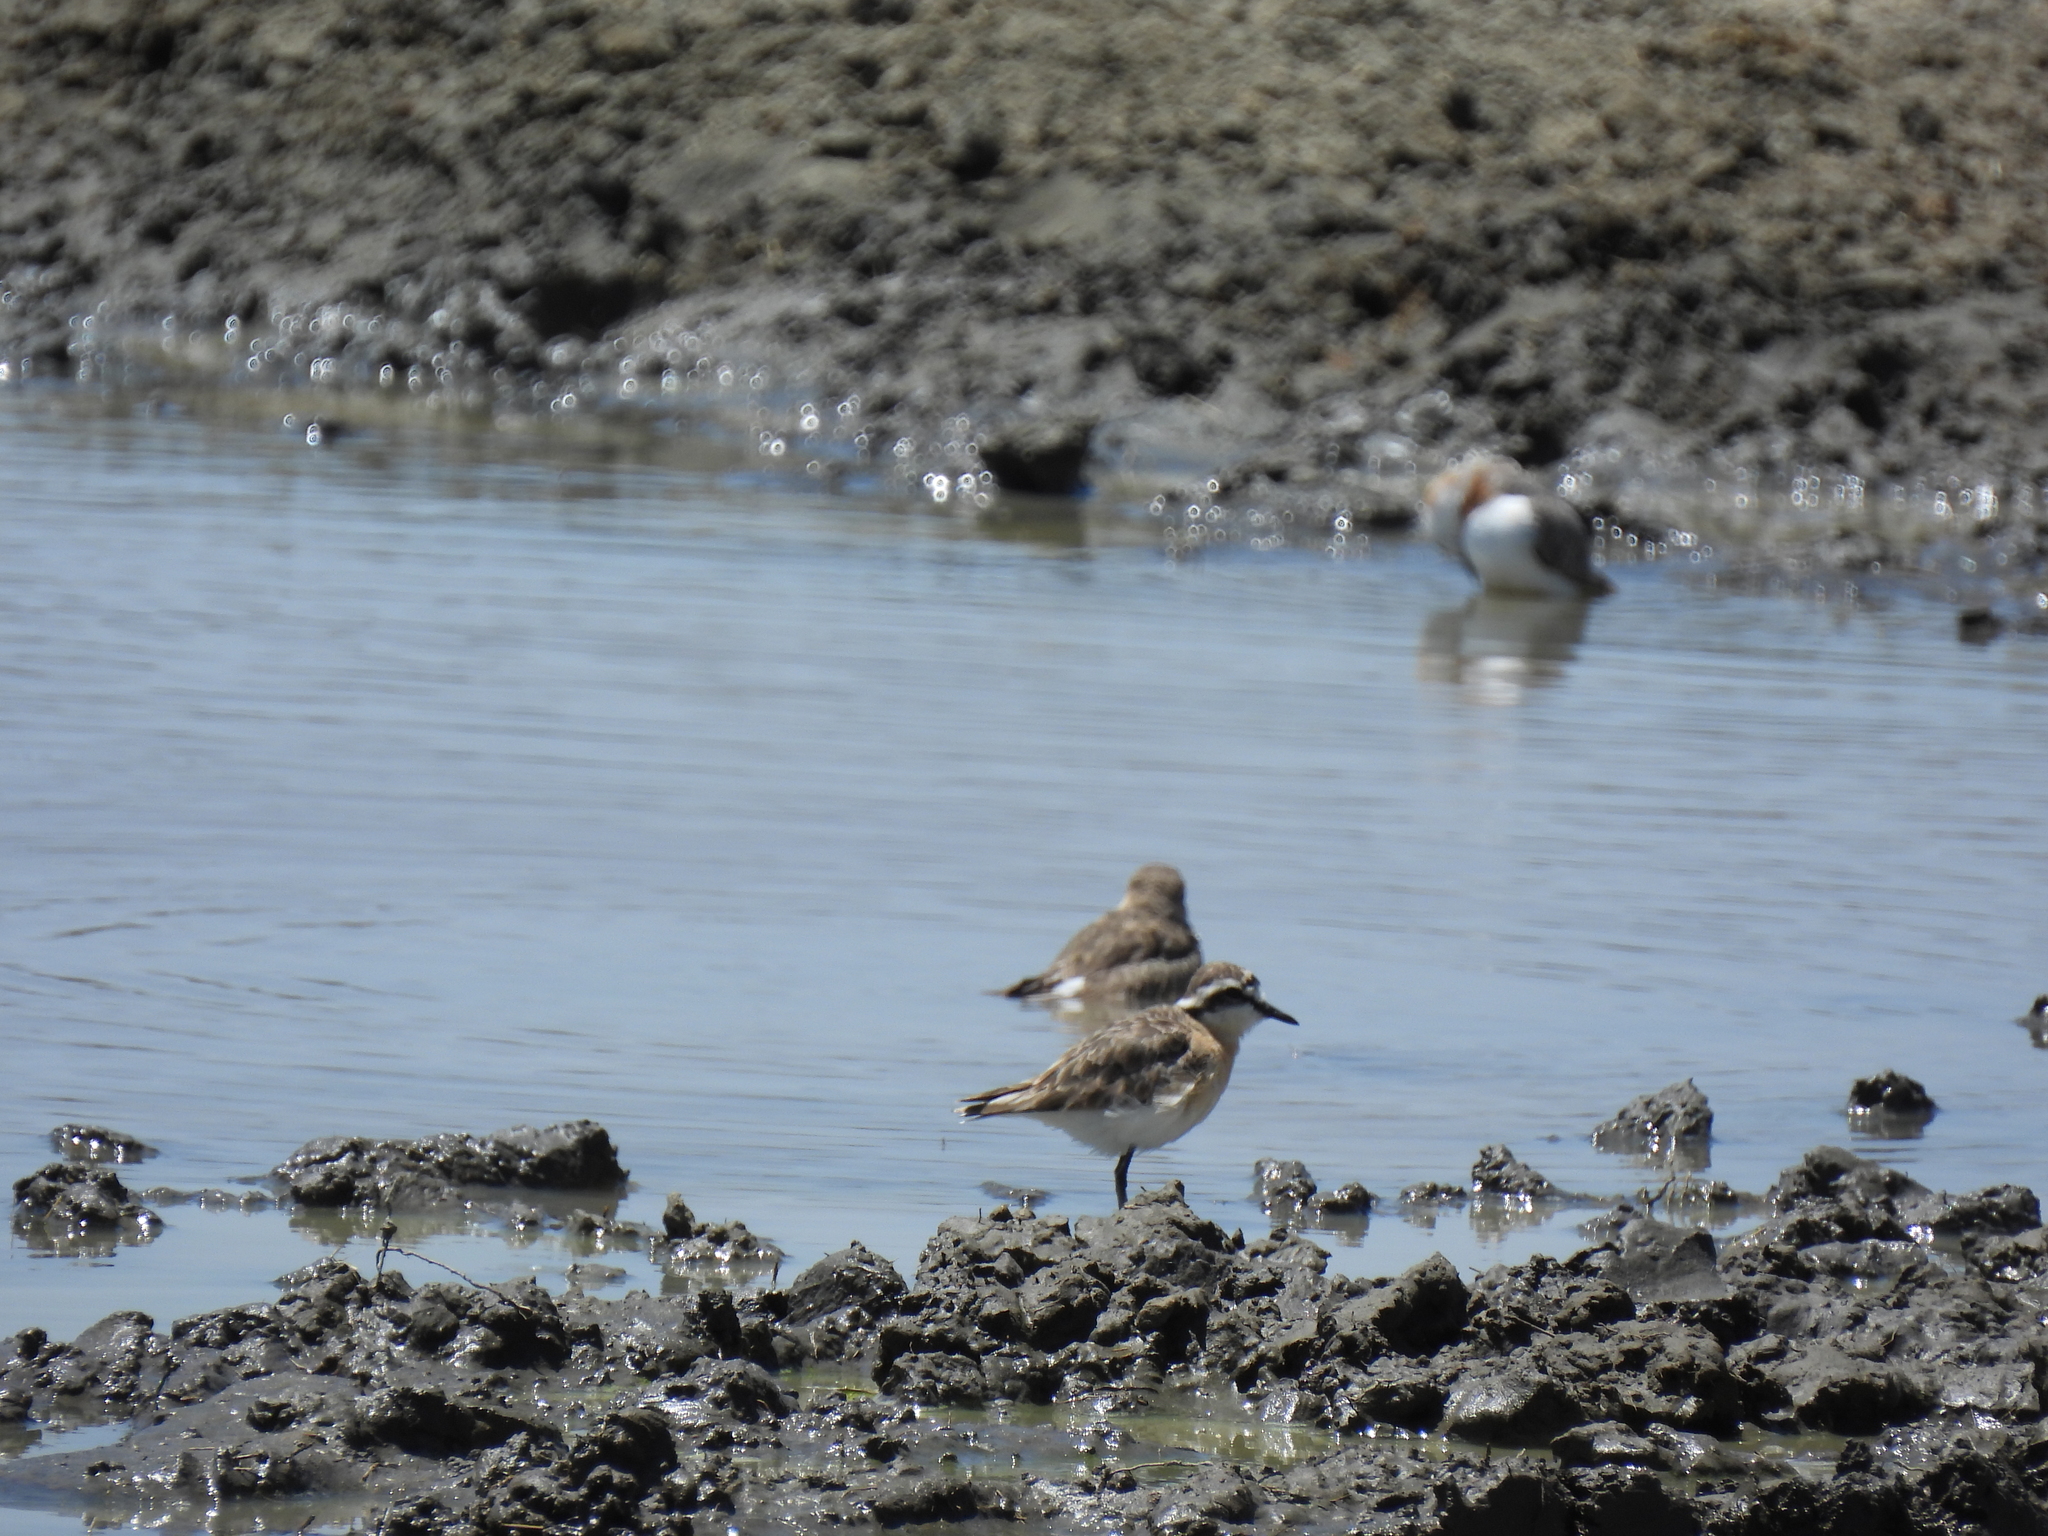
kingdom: Animalia
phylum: Chordata
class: Aves
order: Charadriiformes
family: Charadriidae
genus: Anarhynchus
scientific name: Anarhynchus
